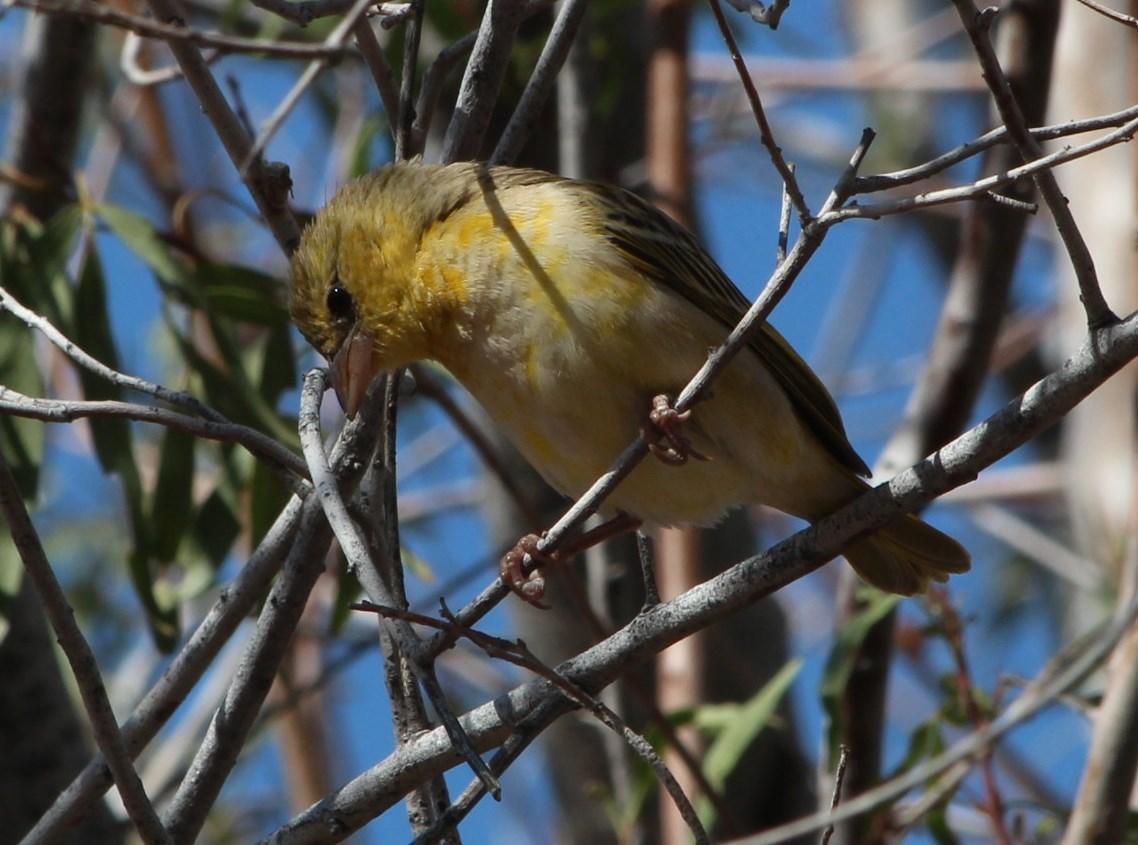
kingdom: Animalia
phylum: Chordata
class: Aves
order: Passeriformes
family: Ploceidae
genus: Ploceus
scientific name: Ploceus velatus
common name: Southern masked weaver
